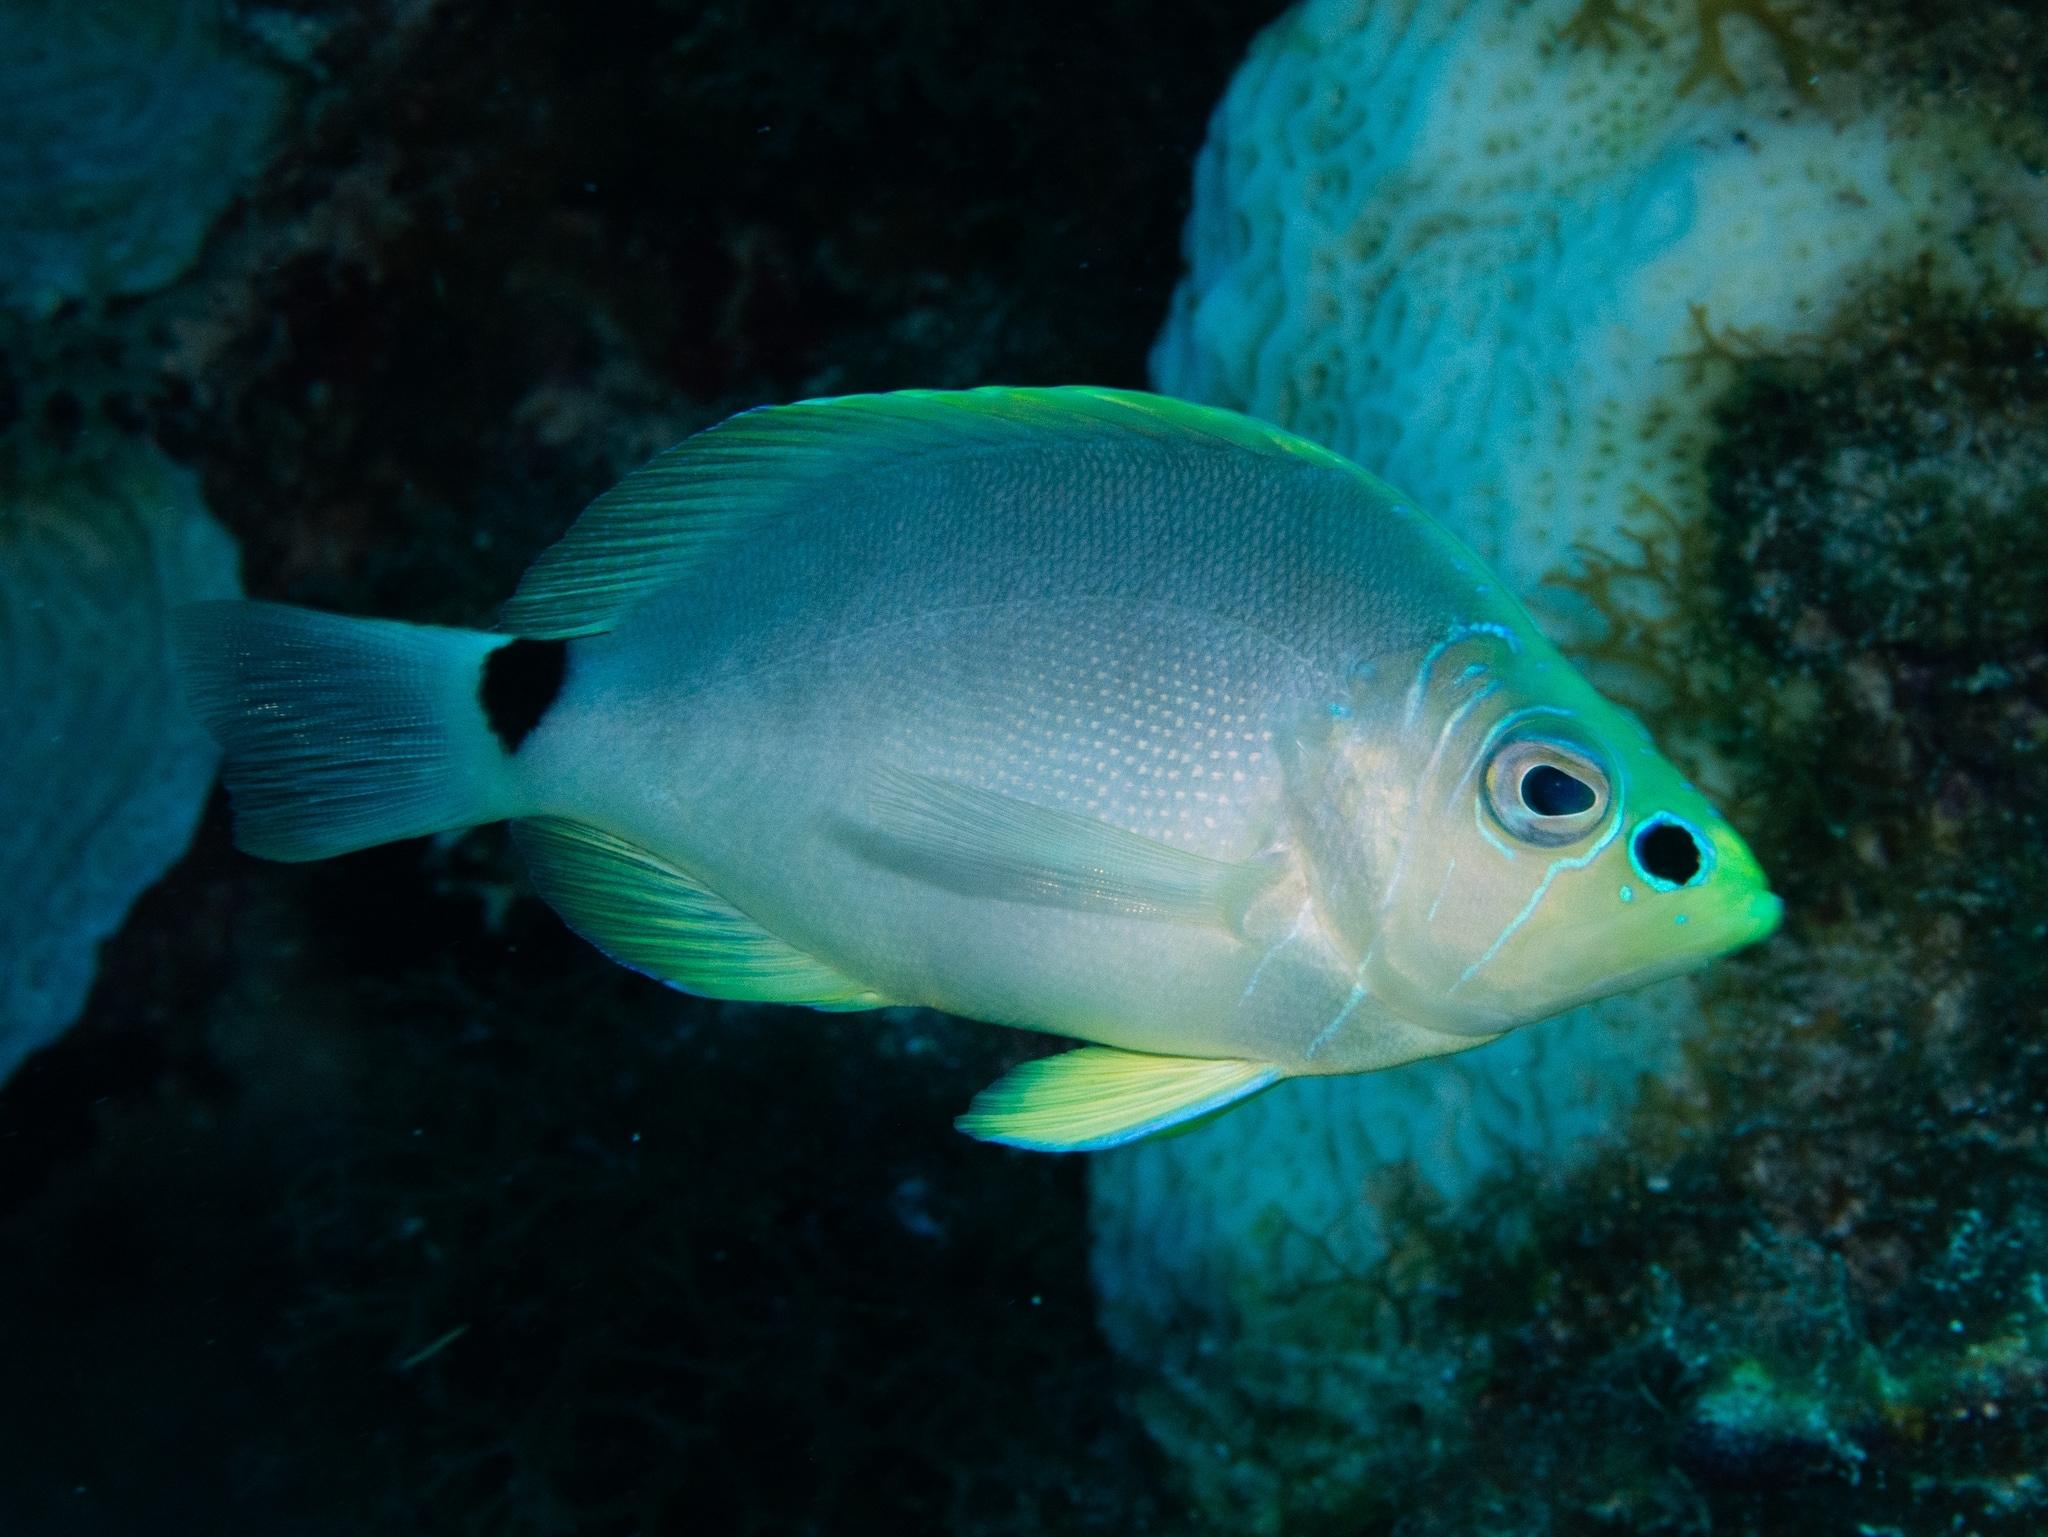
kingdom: Animalia
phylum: Chordata
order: Perciformes
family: Serranidae
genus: Hypoplectrus
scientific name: Hypoplectrus unicolor
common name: Butter hamlet
